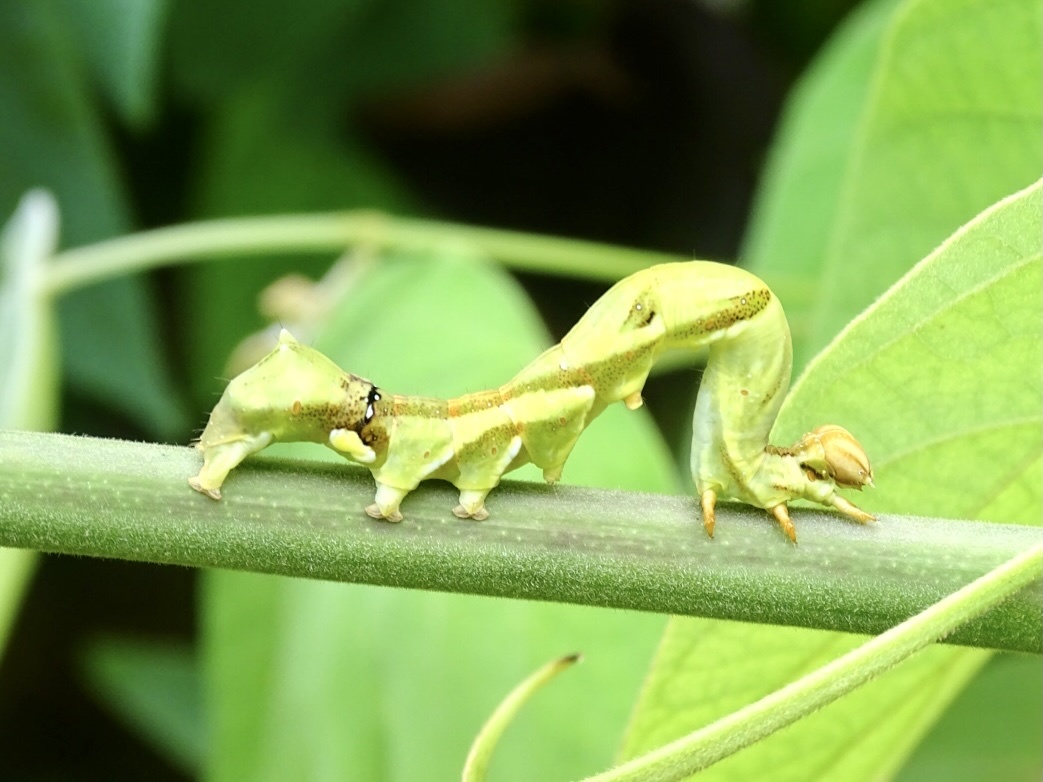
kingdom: Animalia
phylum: Arthropoda
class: Insecta
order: Lepidoptera
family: Erebidae
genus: Ommatophora
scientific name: Ommatophora luminosa
